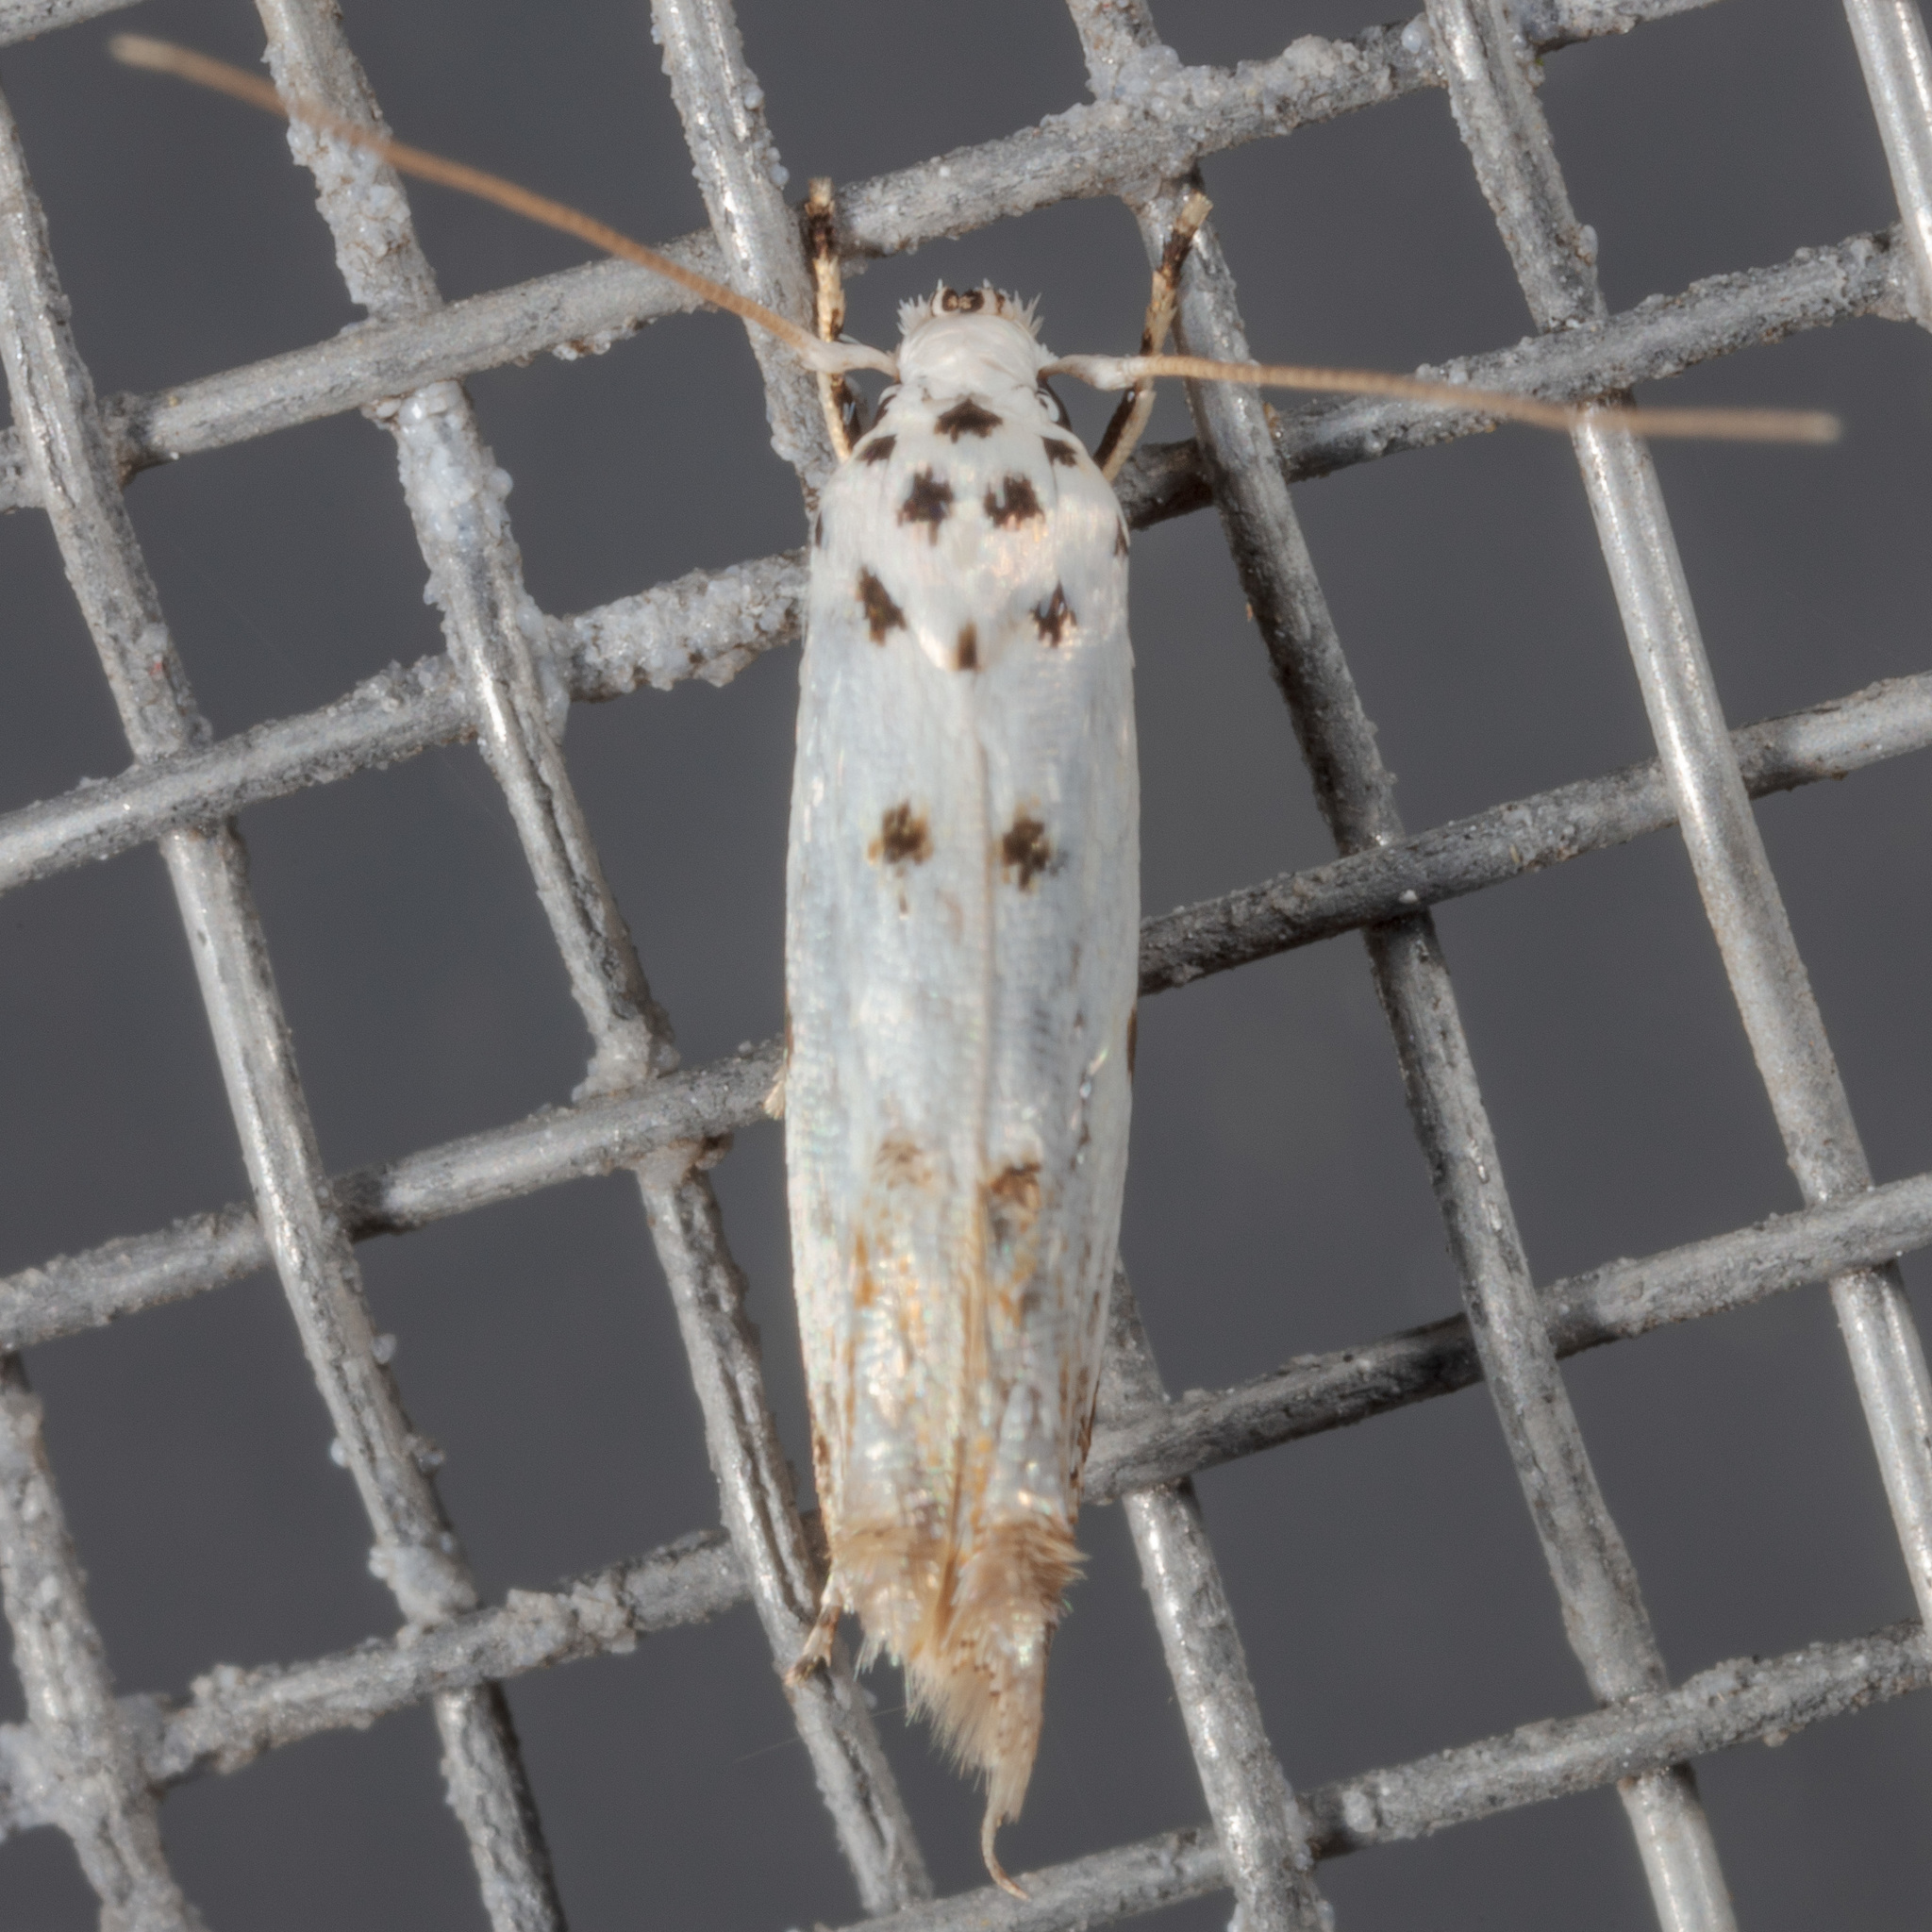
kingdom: Animalia
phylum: Arthropoda
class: Insecta
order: Lepidoptera
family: Momphidae
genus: Mompha
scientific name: Mompha eloisella
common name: Red-streaked mompha moth
